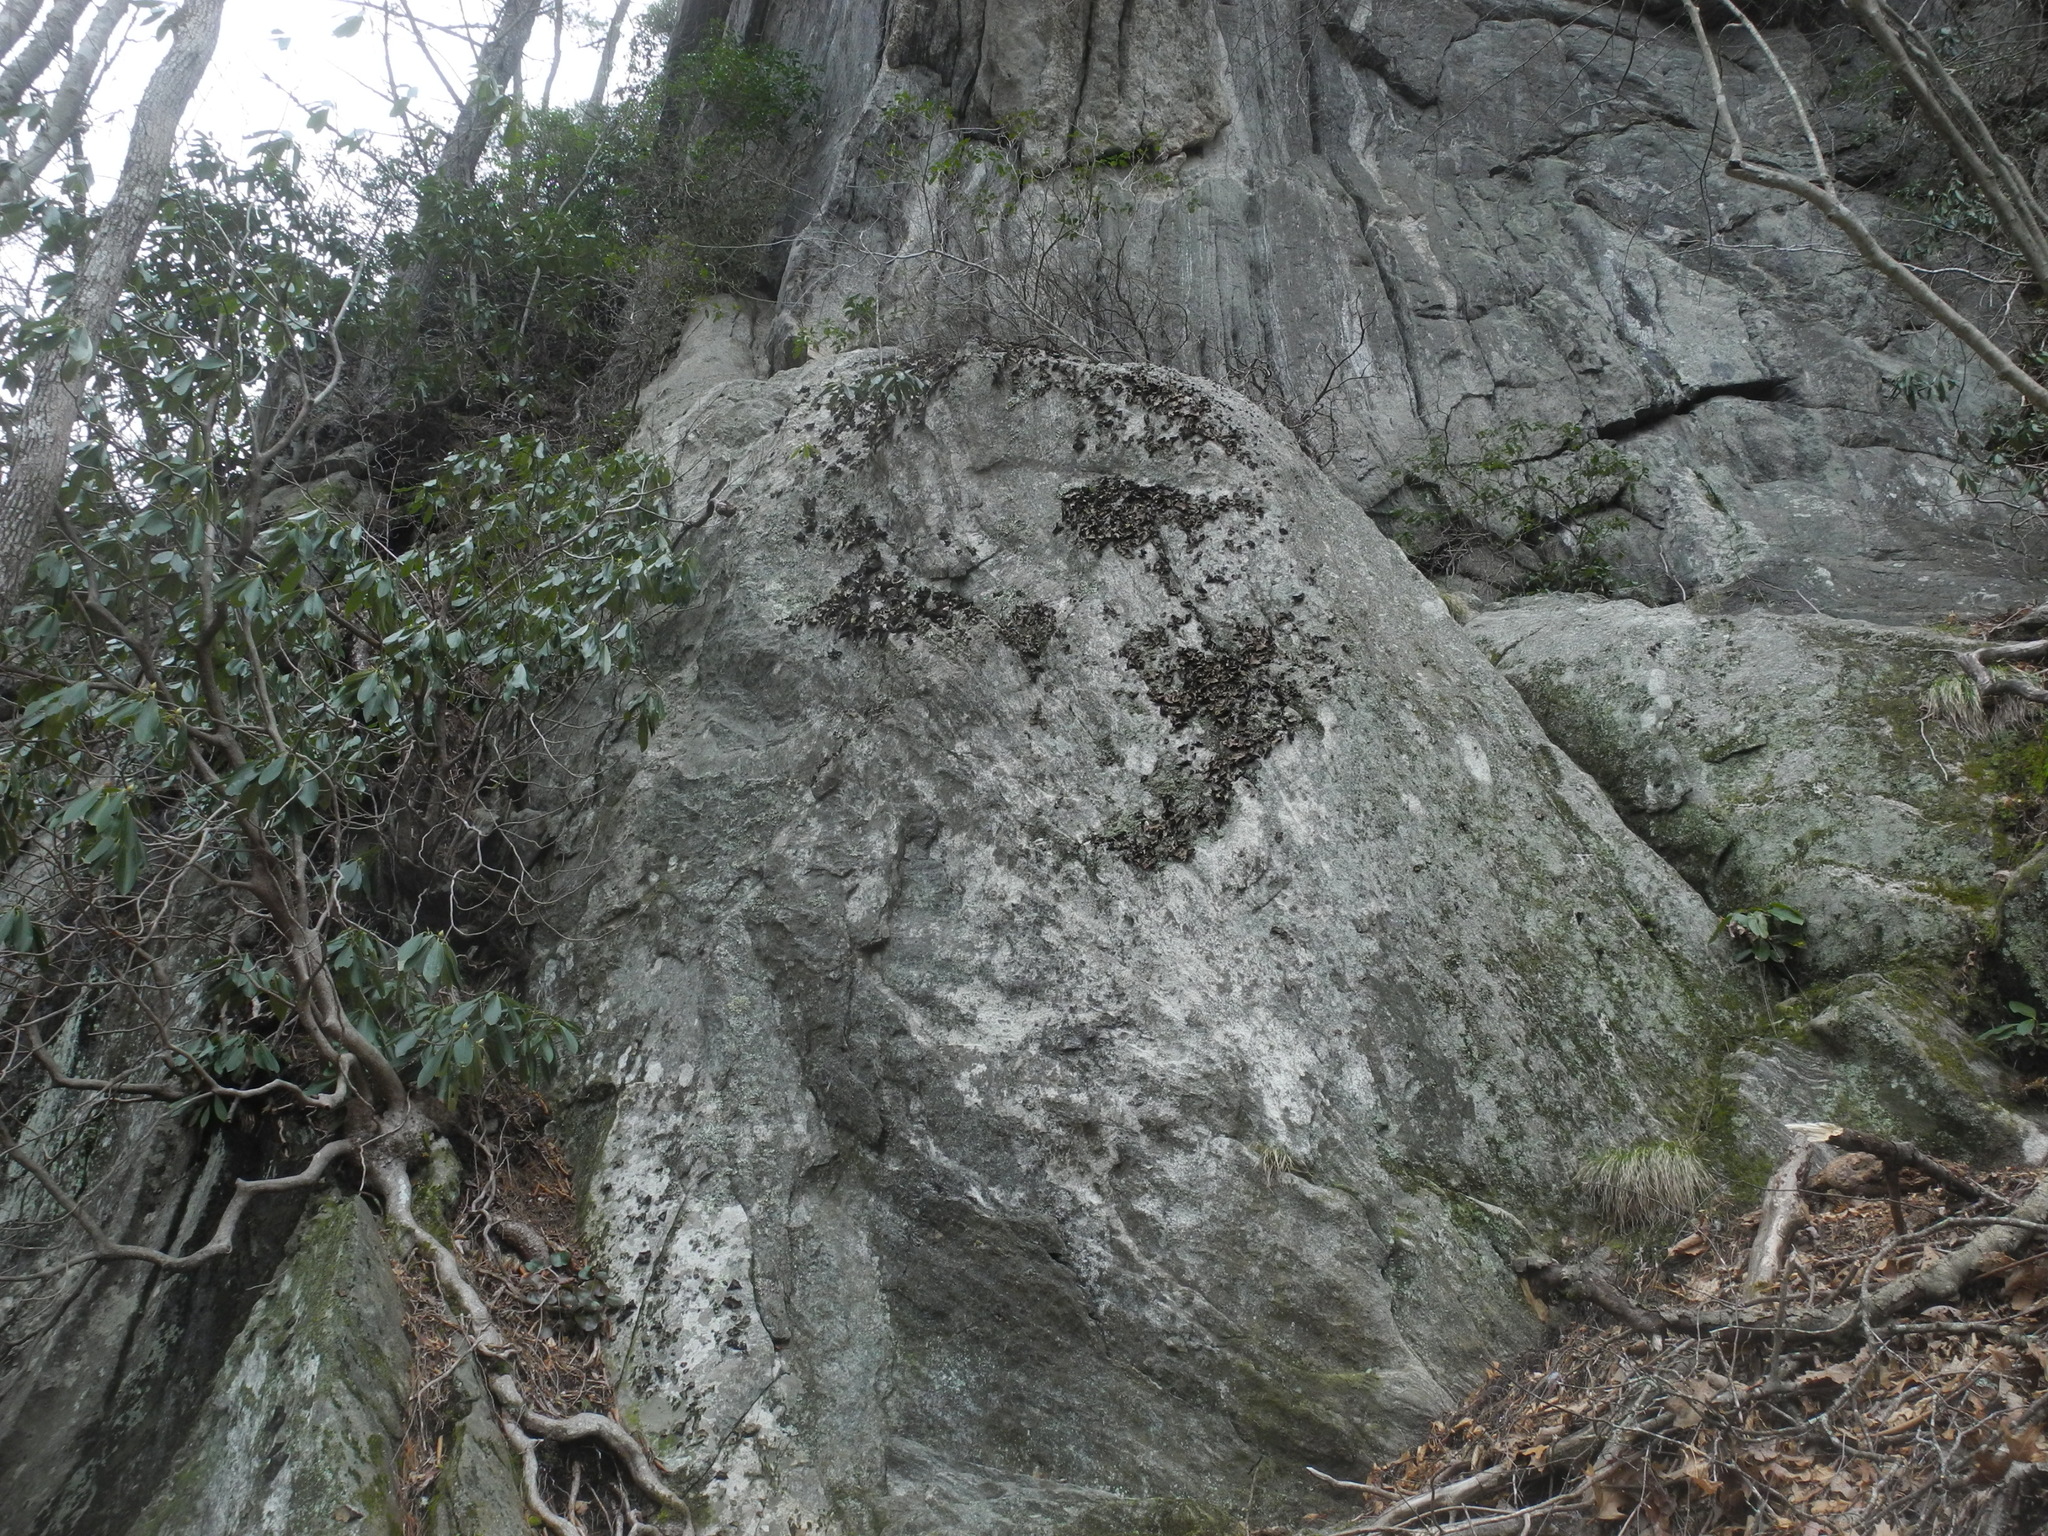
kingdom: Fungi
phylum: Ascomycota
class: Lecanoromycetes
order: Umbilicariales
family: Umbilicariaceae
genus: Umbilicaria
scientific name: Umbilicaria mammulata
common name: Smooth rock tripe
